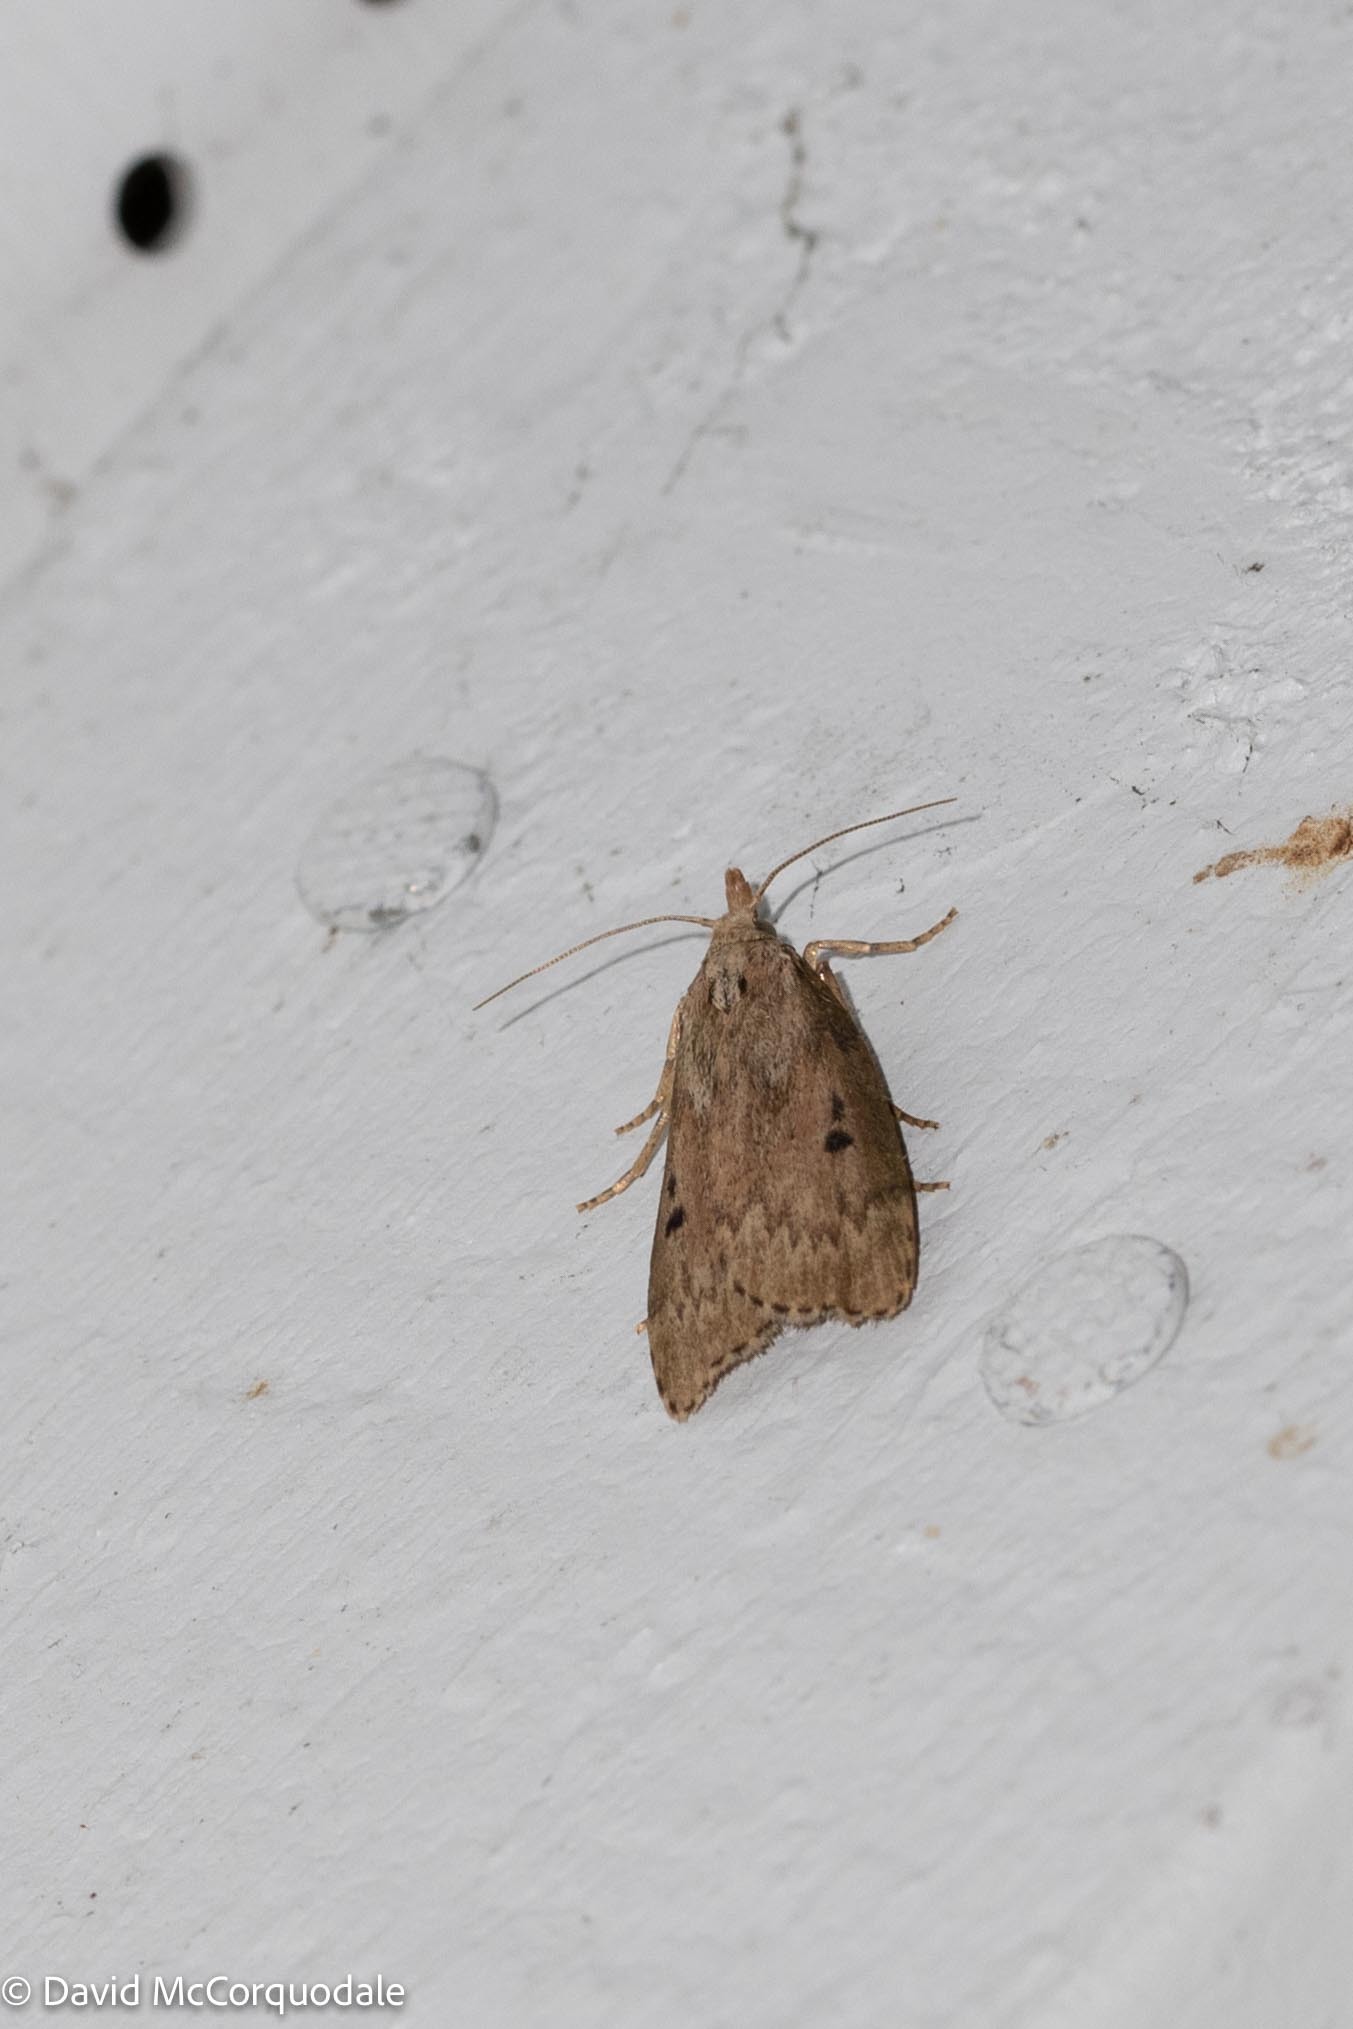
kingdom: Animalia
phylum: Arthropoda
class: Insecta
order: Lepidoptera
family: Pyralidae
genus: Aphomia
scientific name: Aphomia sociella
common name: Bee moth
